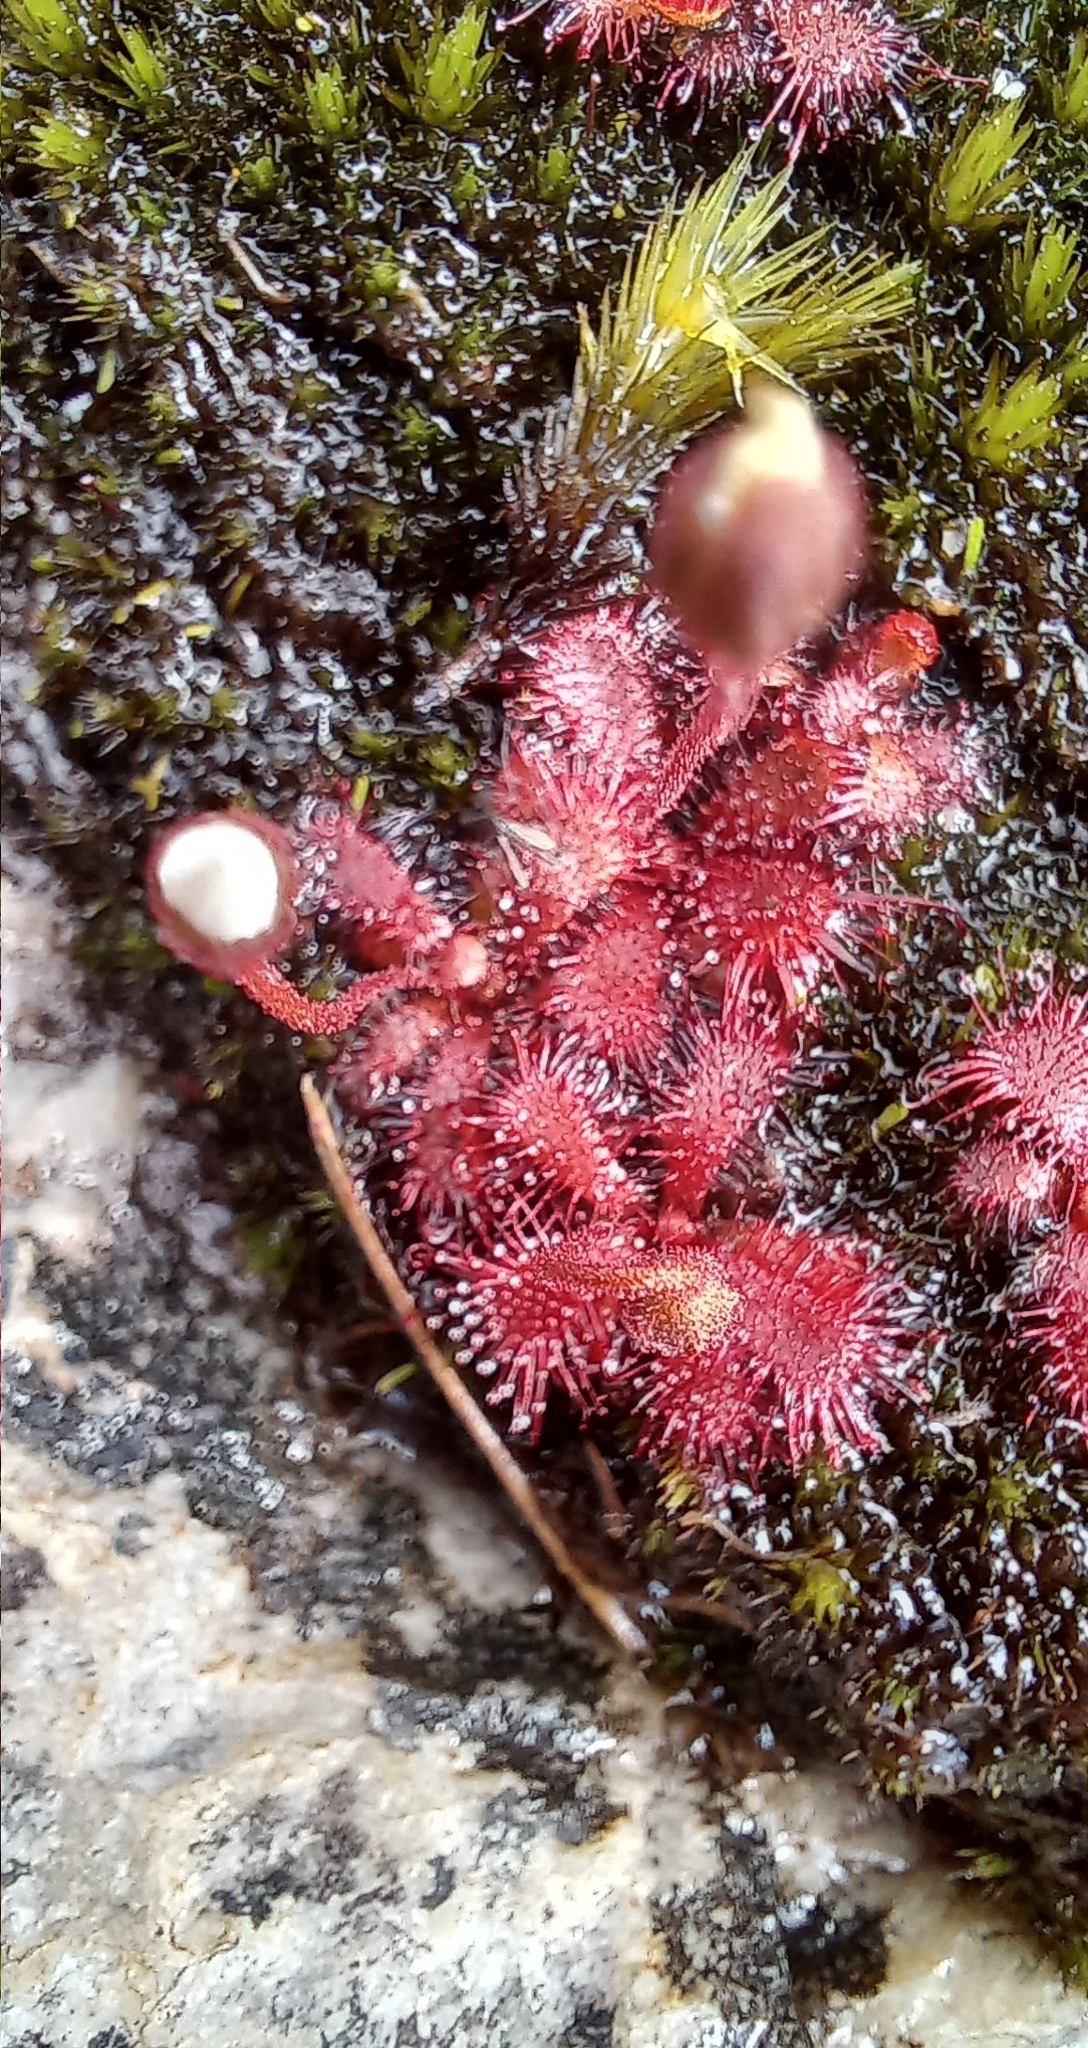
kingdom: Plantae
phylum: Tracheophyta
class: Magnoliopsida
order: Caryophyllales
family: Droseraceae
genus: Drosera
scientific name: Drosera trinervia
